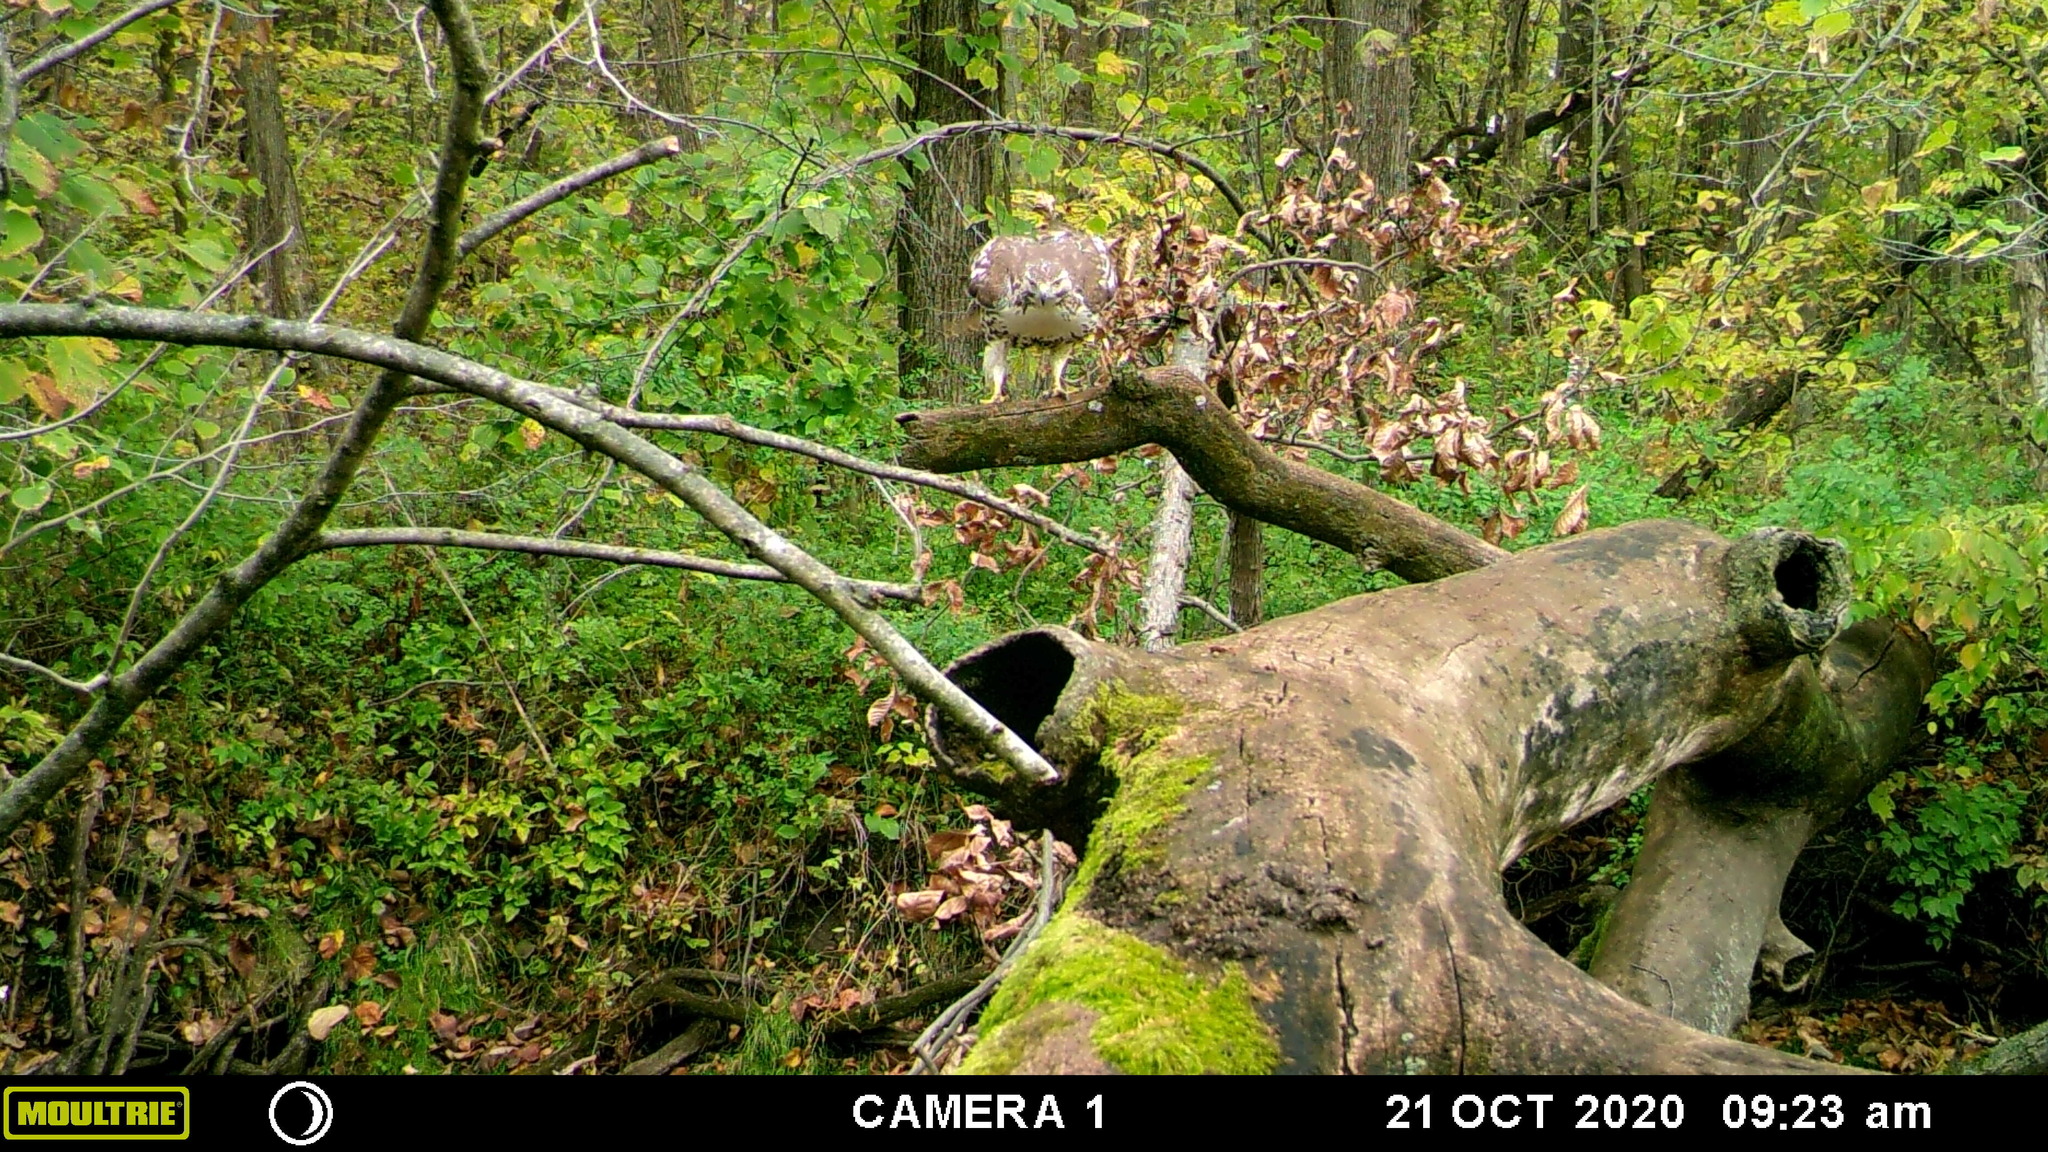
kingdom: Animalia
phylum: Chordata
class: Aves
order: Accipitriformes
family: Accipitridae
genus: Buteo
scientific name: Buteo jamaicensis
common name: Red-tailed hawk
